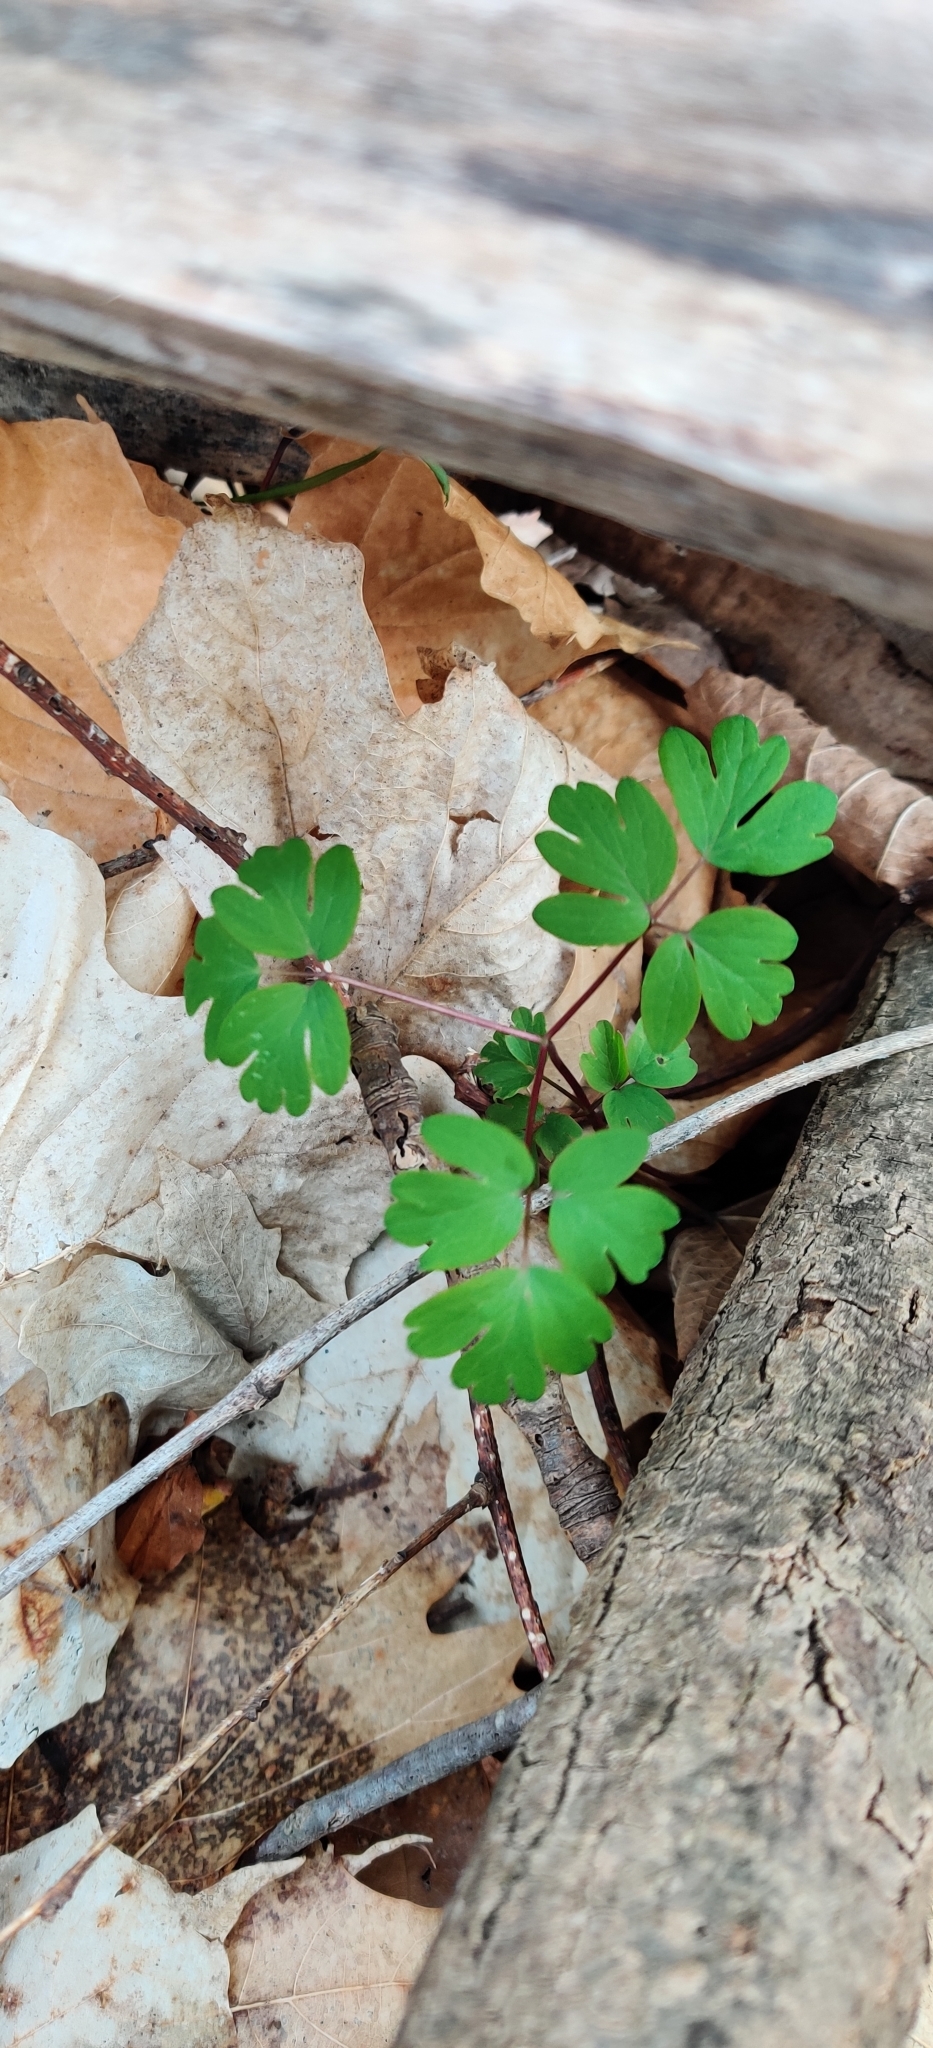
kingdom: Plantae
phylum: Tracheophyta
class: Magnoliopsida
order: Ranunculales
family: Ranunculaceae
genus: Enemion
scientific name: Enemion biternatum
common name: Eastern false rue-anemone
